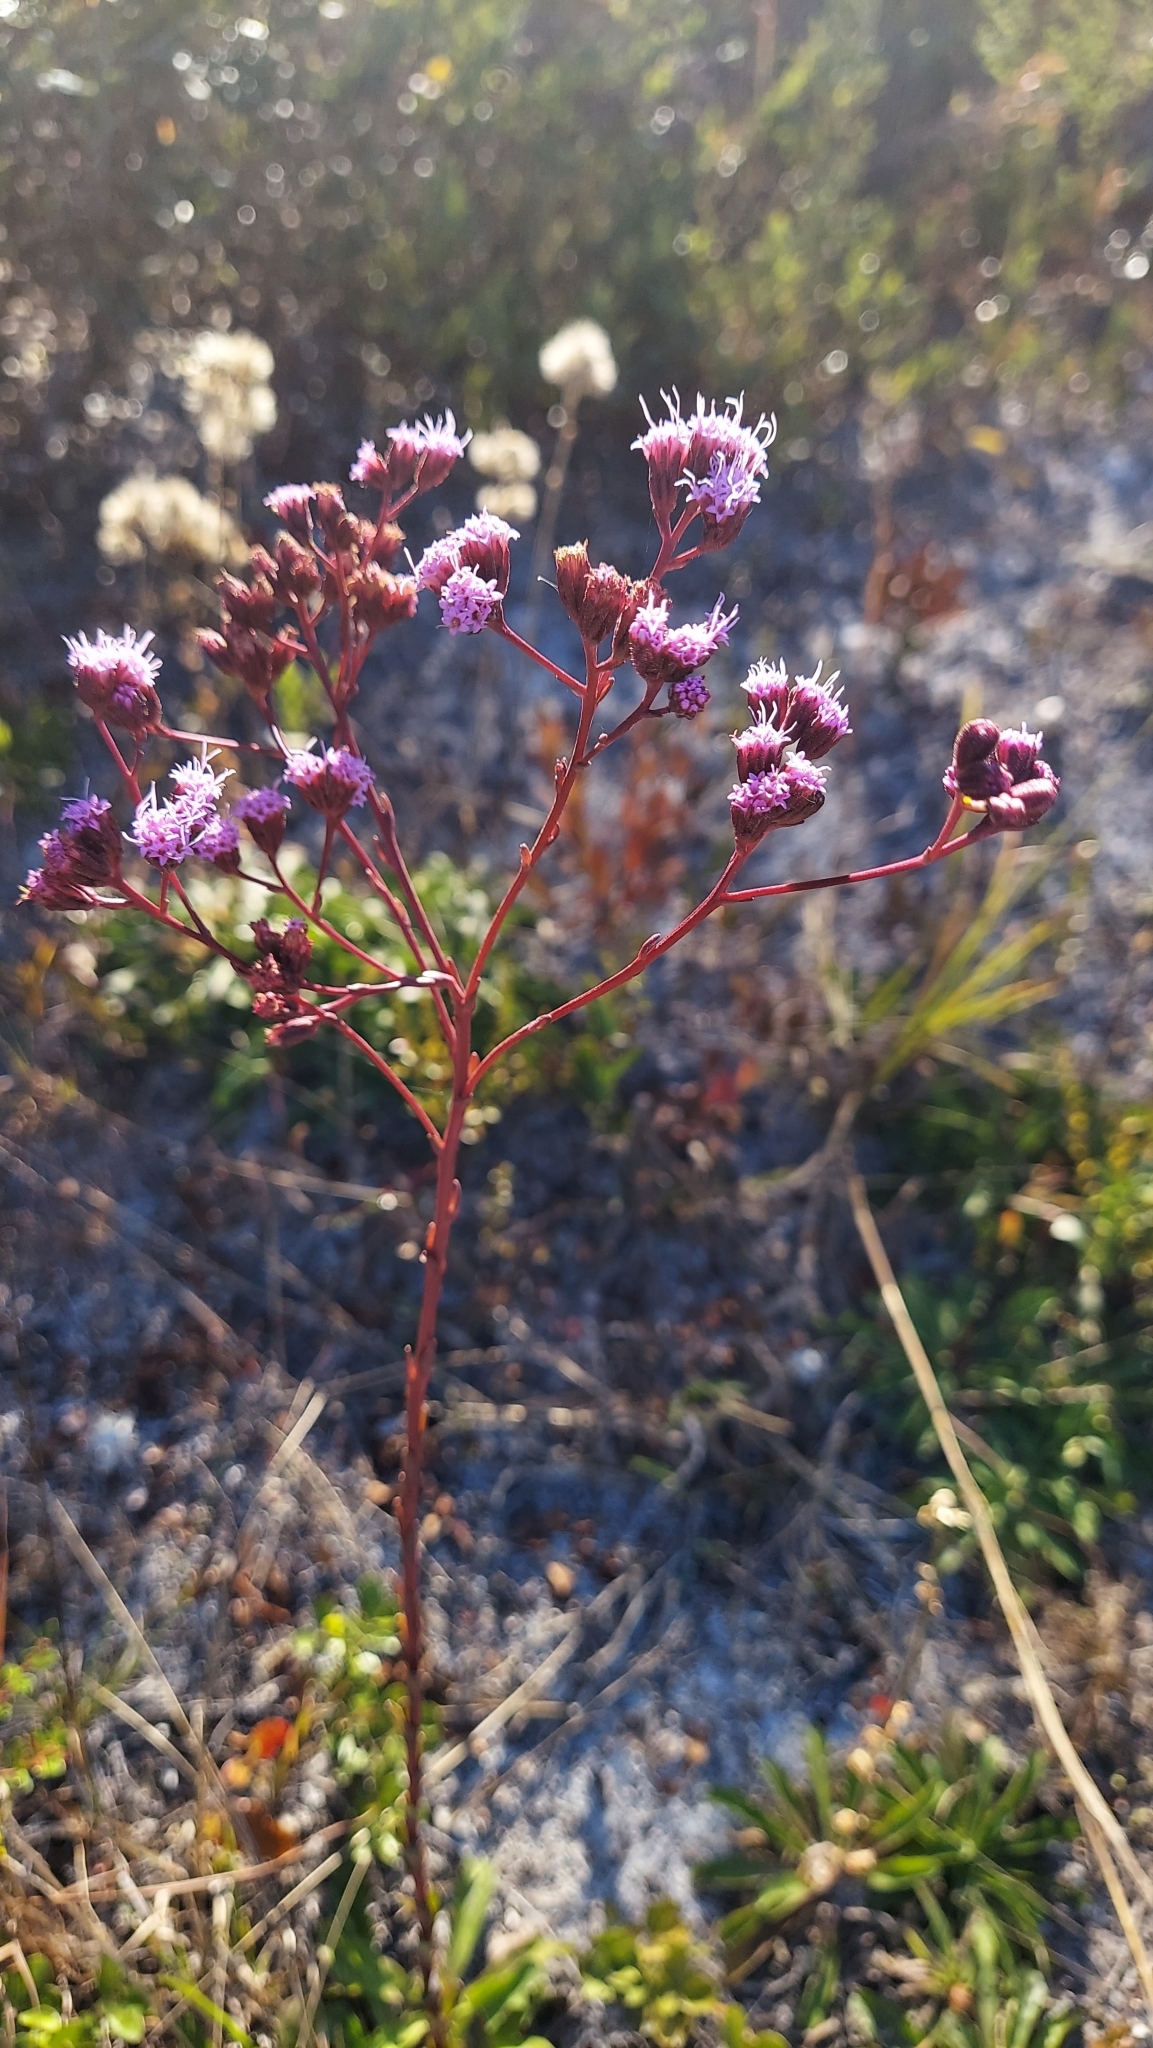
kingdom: Plantae
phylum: Tracheophyta
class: Magnoliopsida
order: Asterales
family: Asteraceae
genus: Carphephorus
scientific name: Carphephorus odoratissimus
